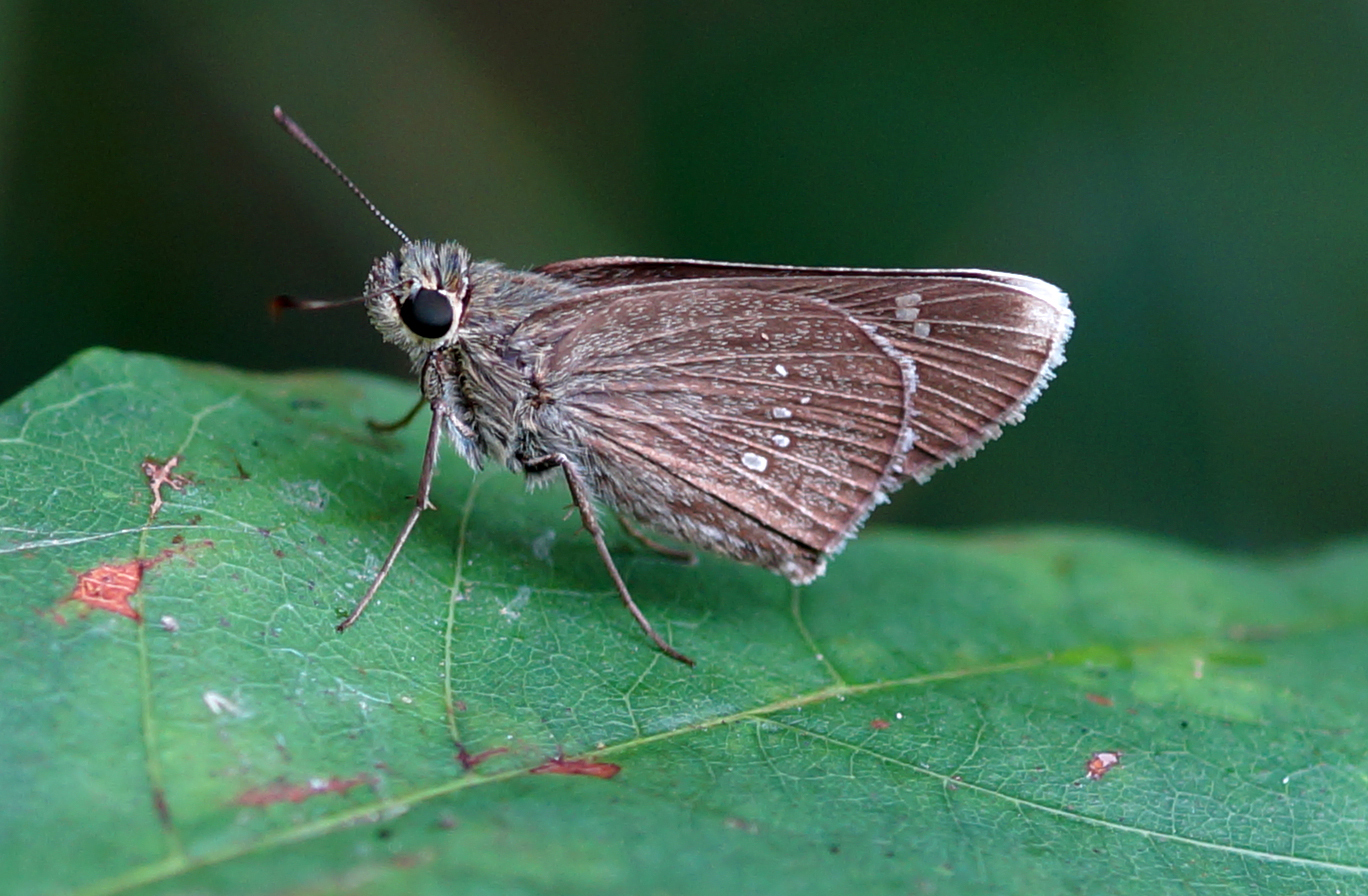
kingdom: Animalia
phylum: Arthropoda
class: Insecta
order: Lepidoptera
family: Hesperiidae
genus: Polytremis
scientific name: Polytremis annama
